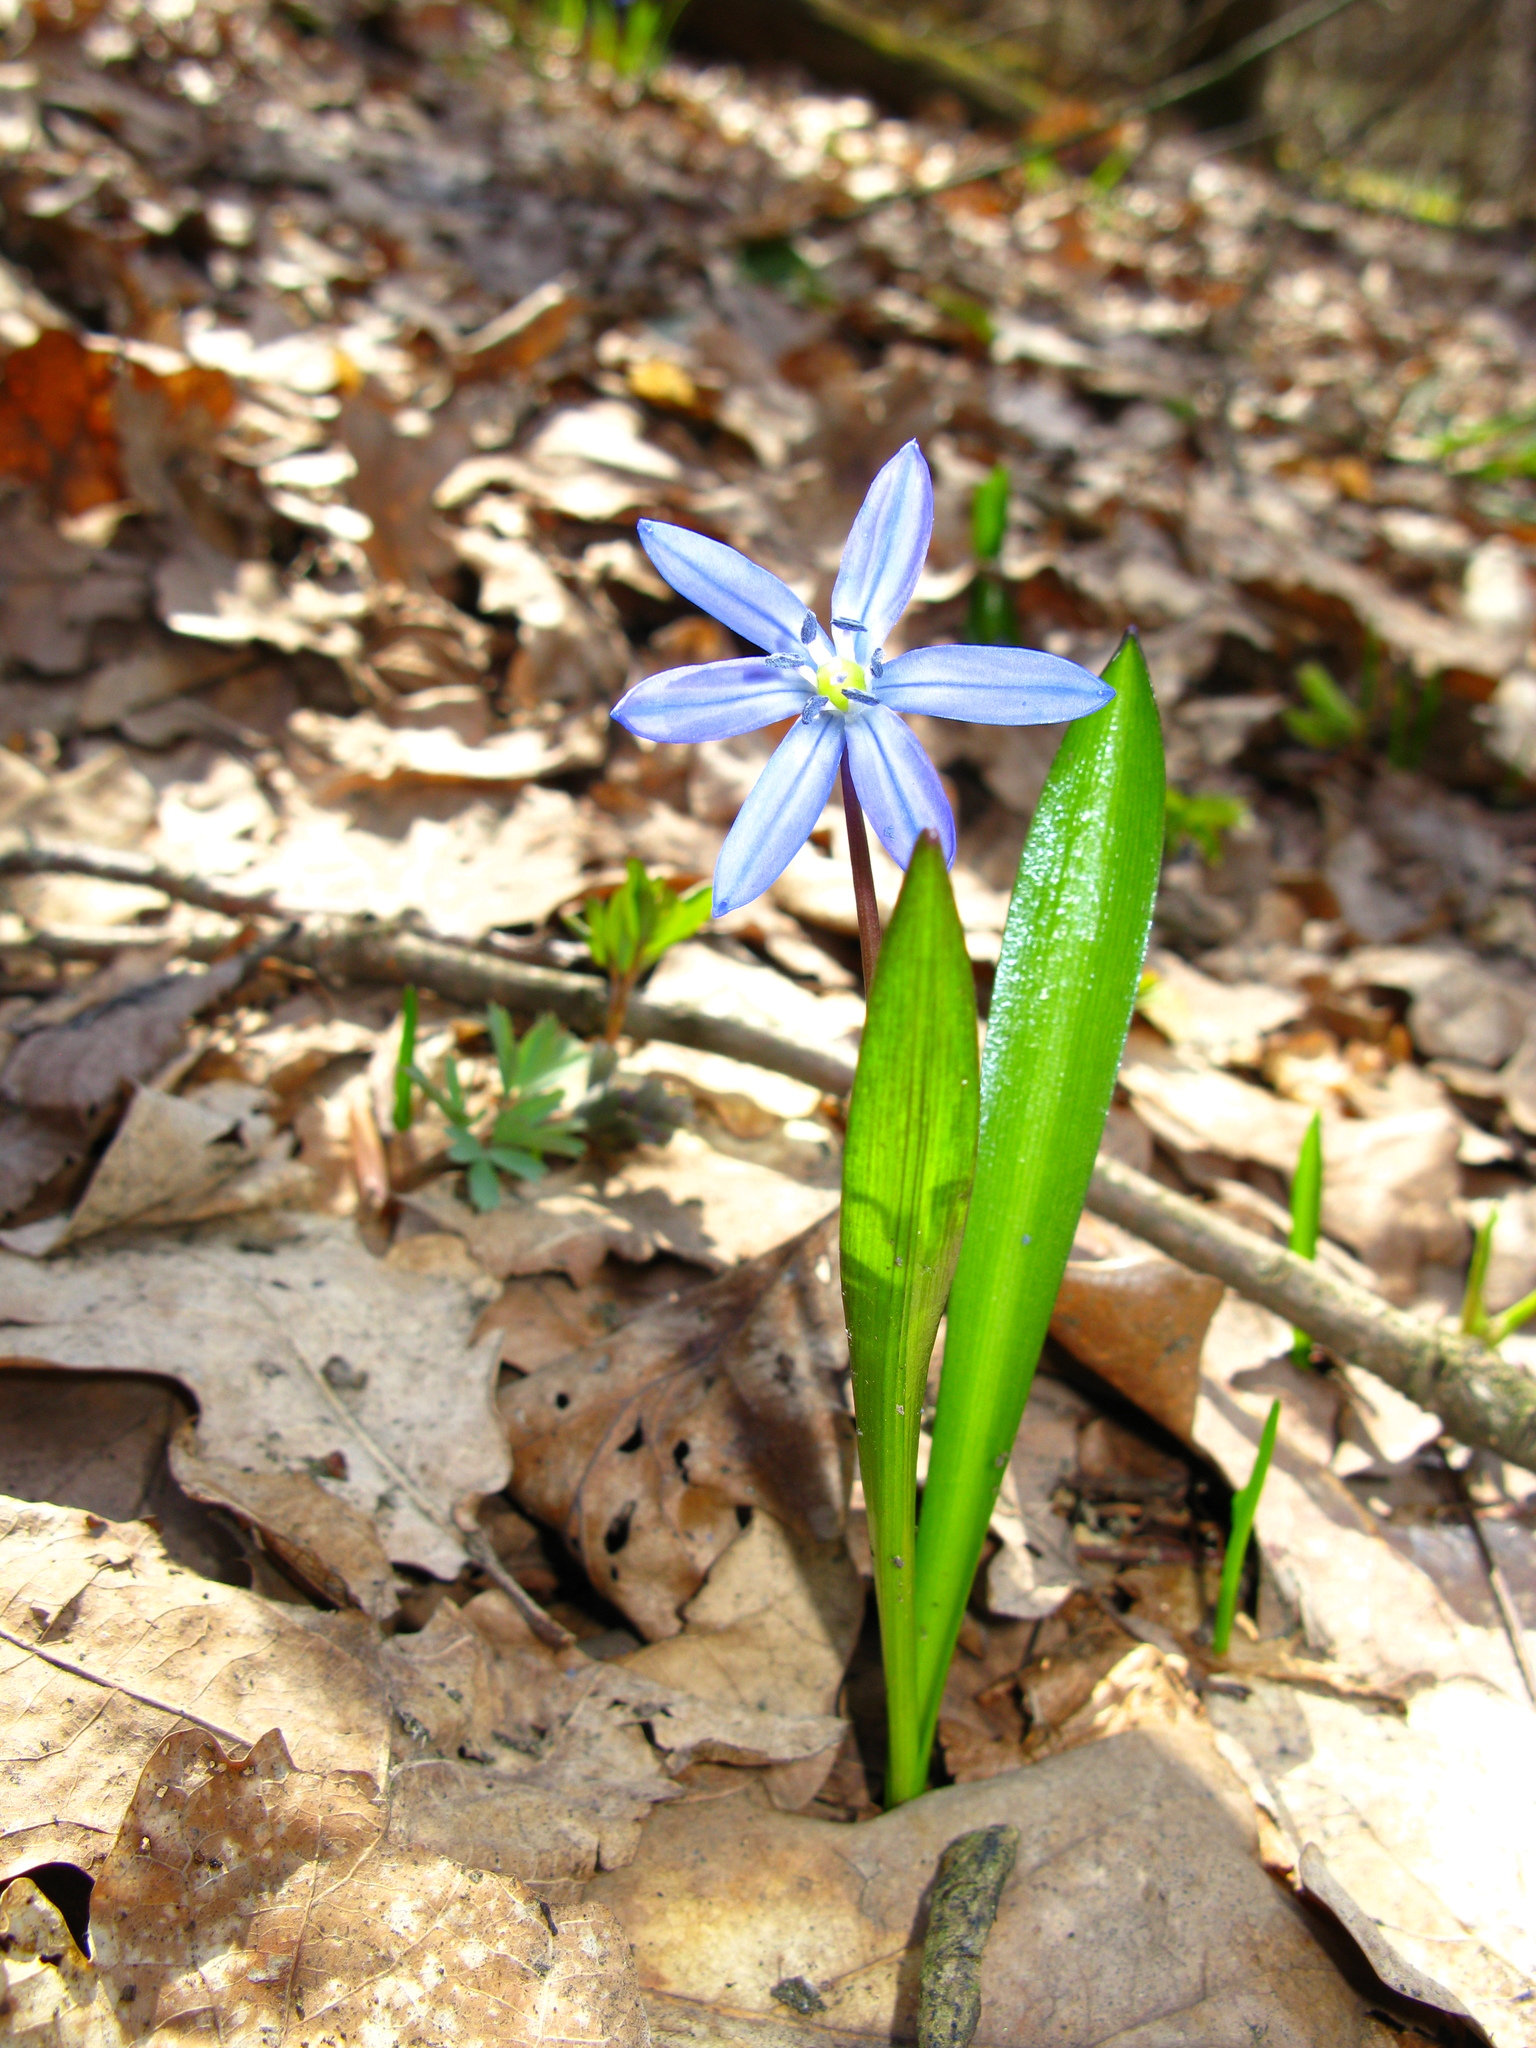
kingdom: Plantae
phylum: Tracheophyta
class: Liliopsida
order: Asparagales
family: Asparagaceae
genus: Scilla
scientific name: Scilla siberica
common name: Siberian squill
